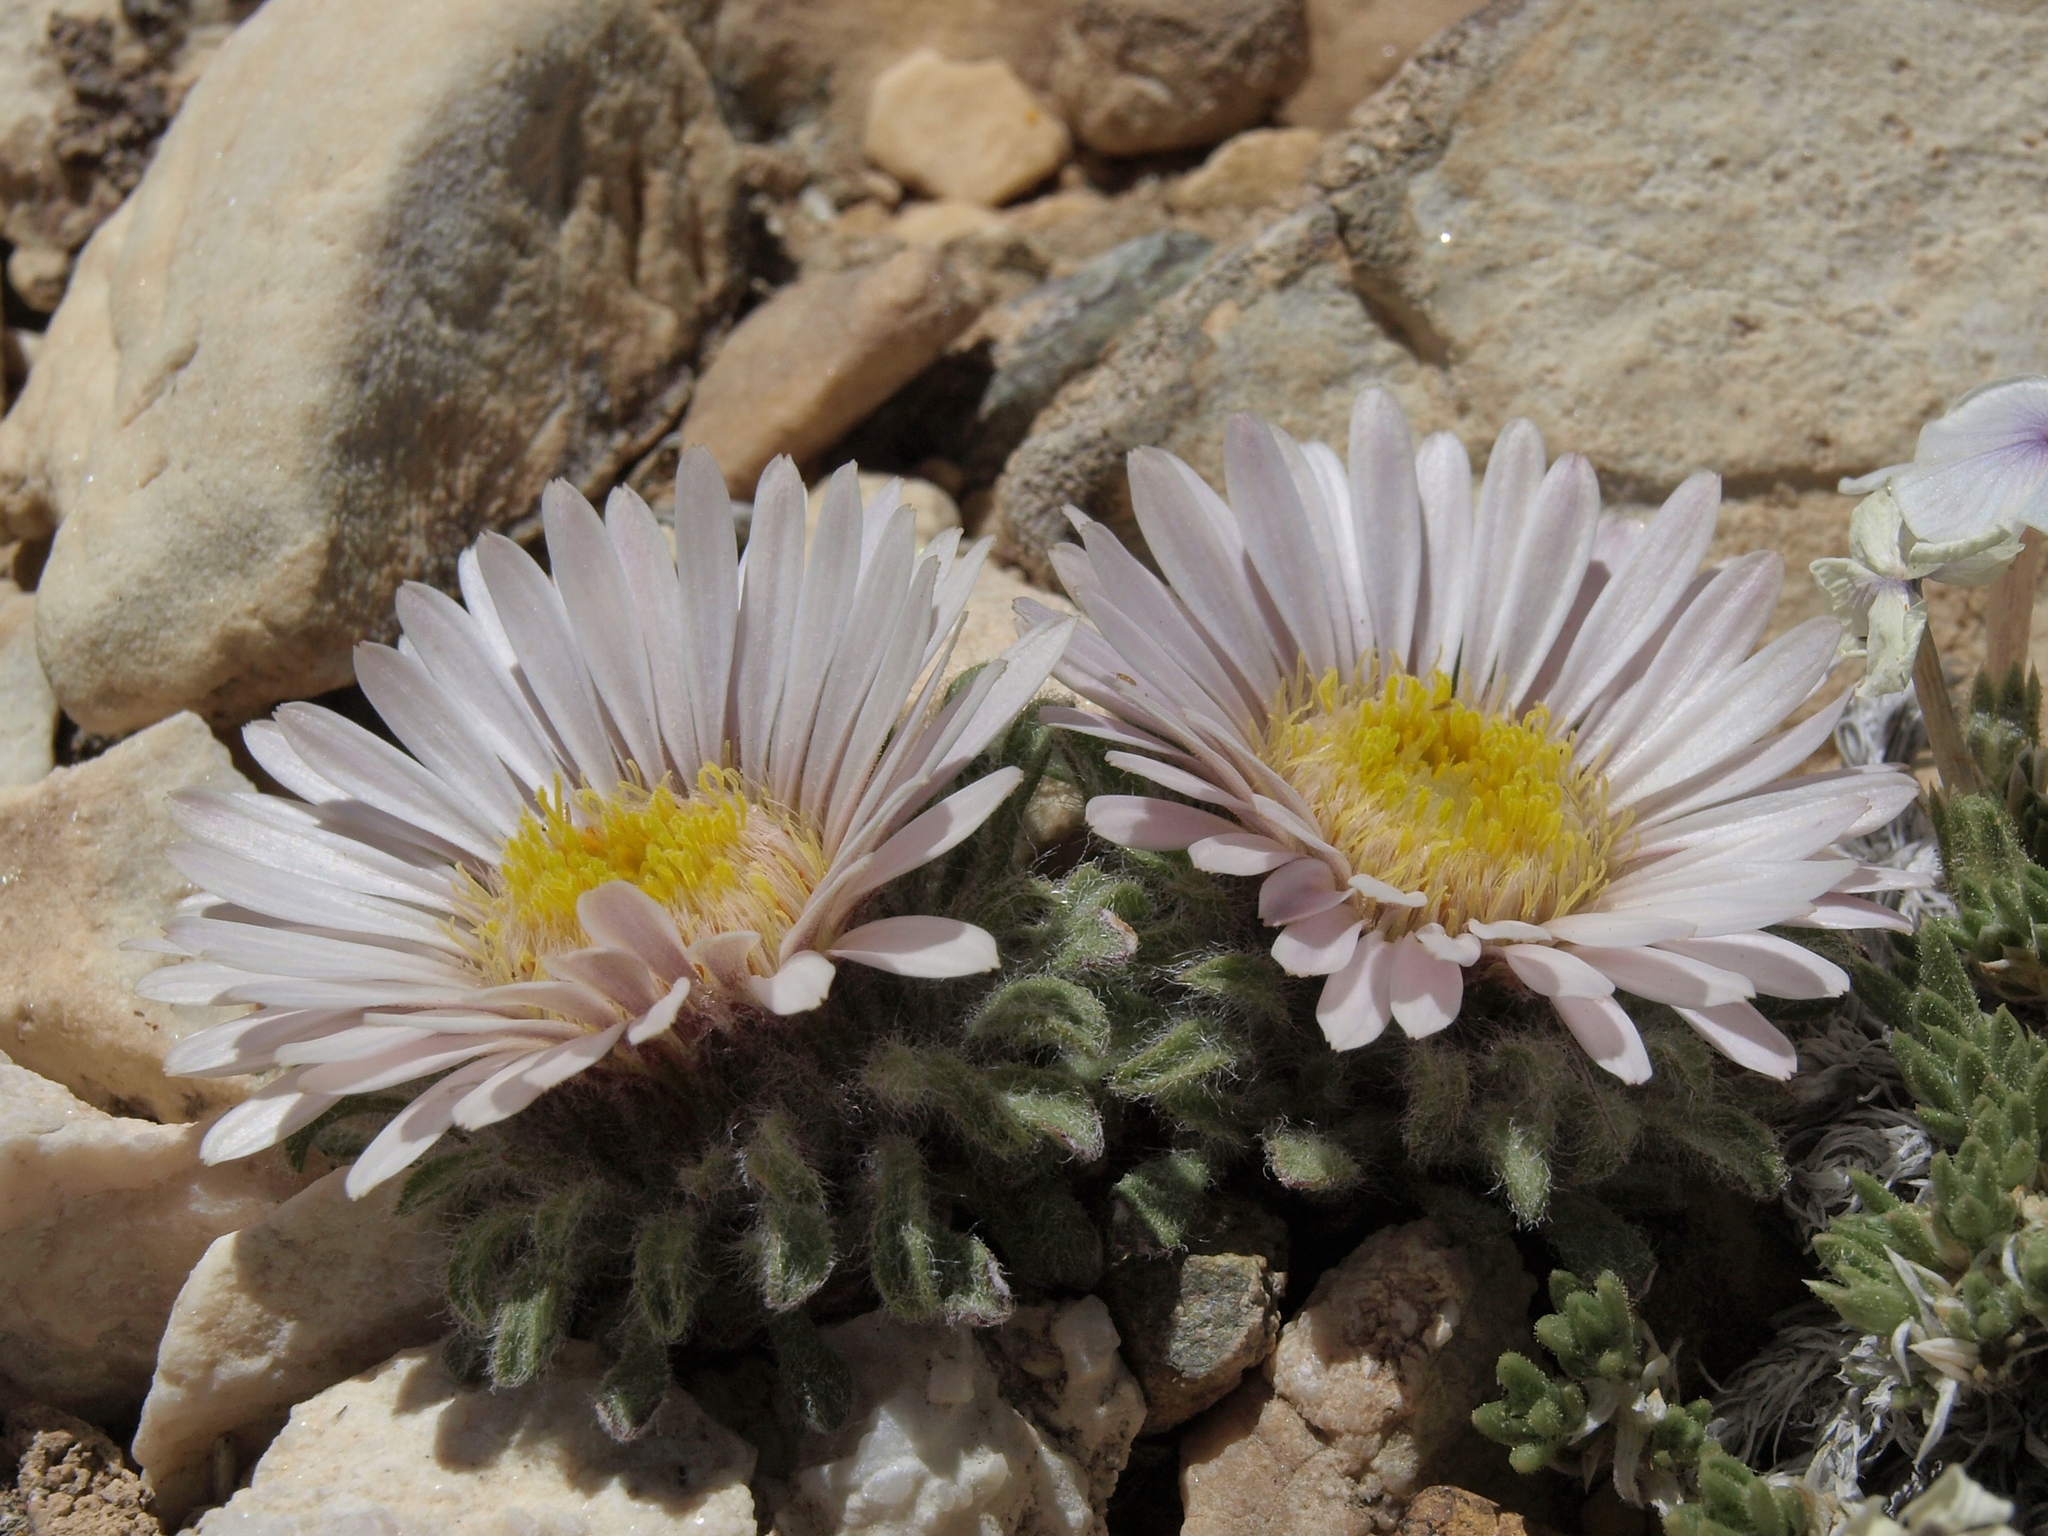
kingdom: Plantae
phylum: Tracheophyta
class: Magnoliopsida
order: Asterales
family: Asteraceae
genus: Townsendia
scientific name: Townsendia condensata
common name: Alpine townsend daisy
